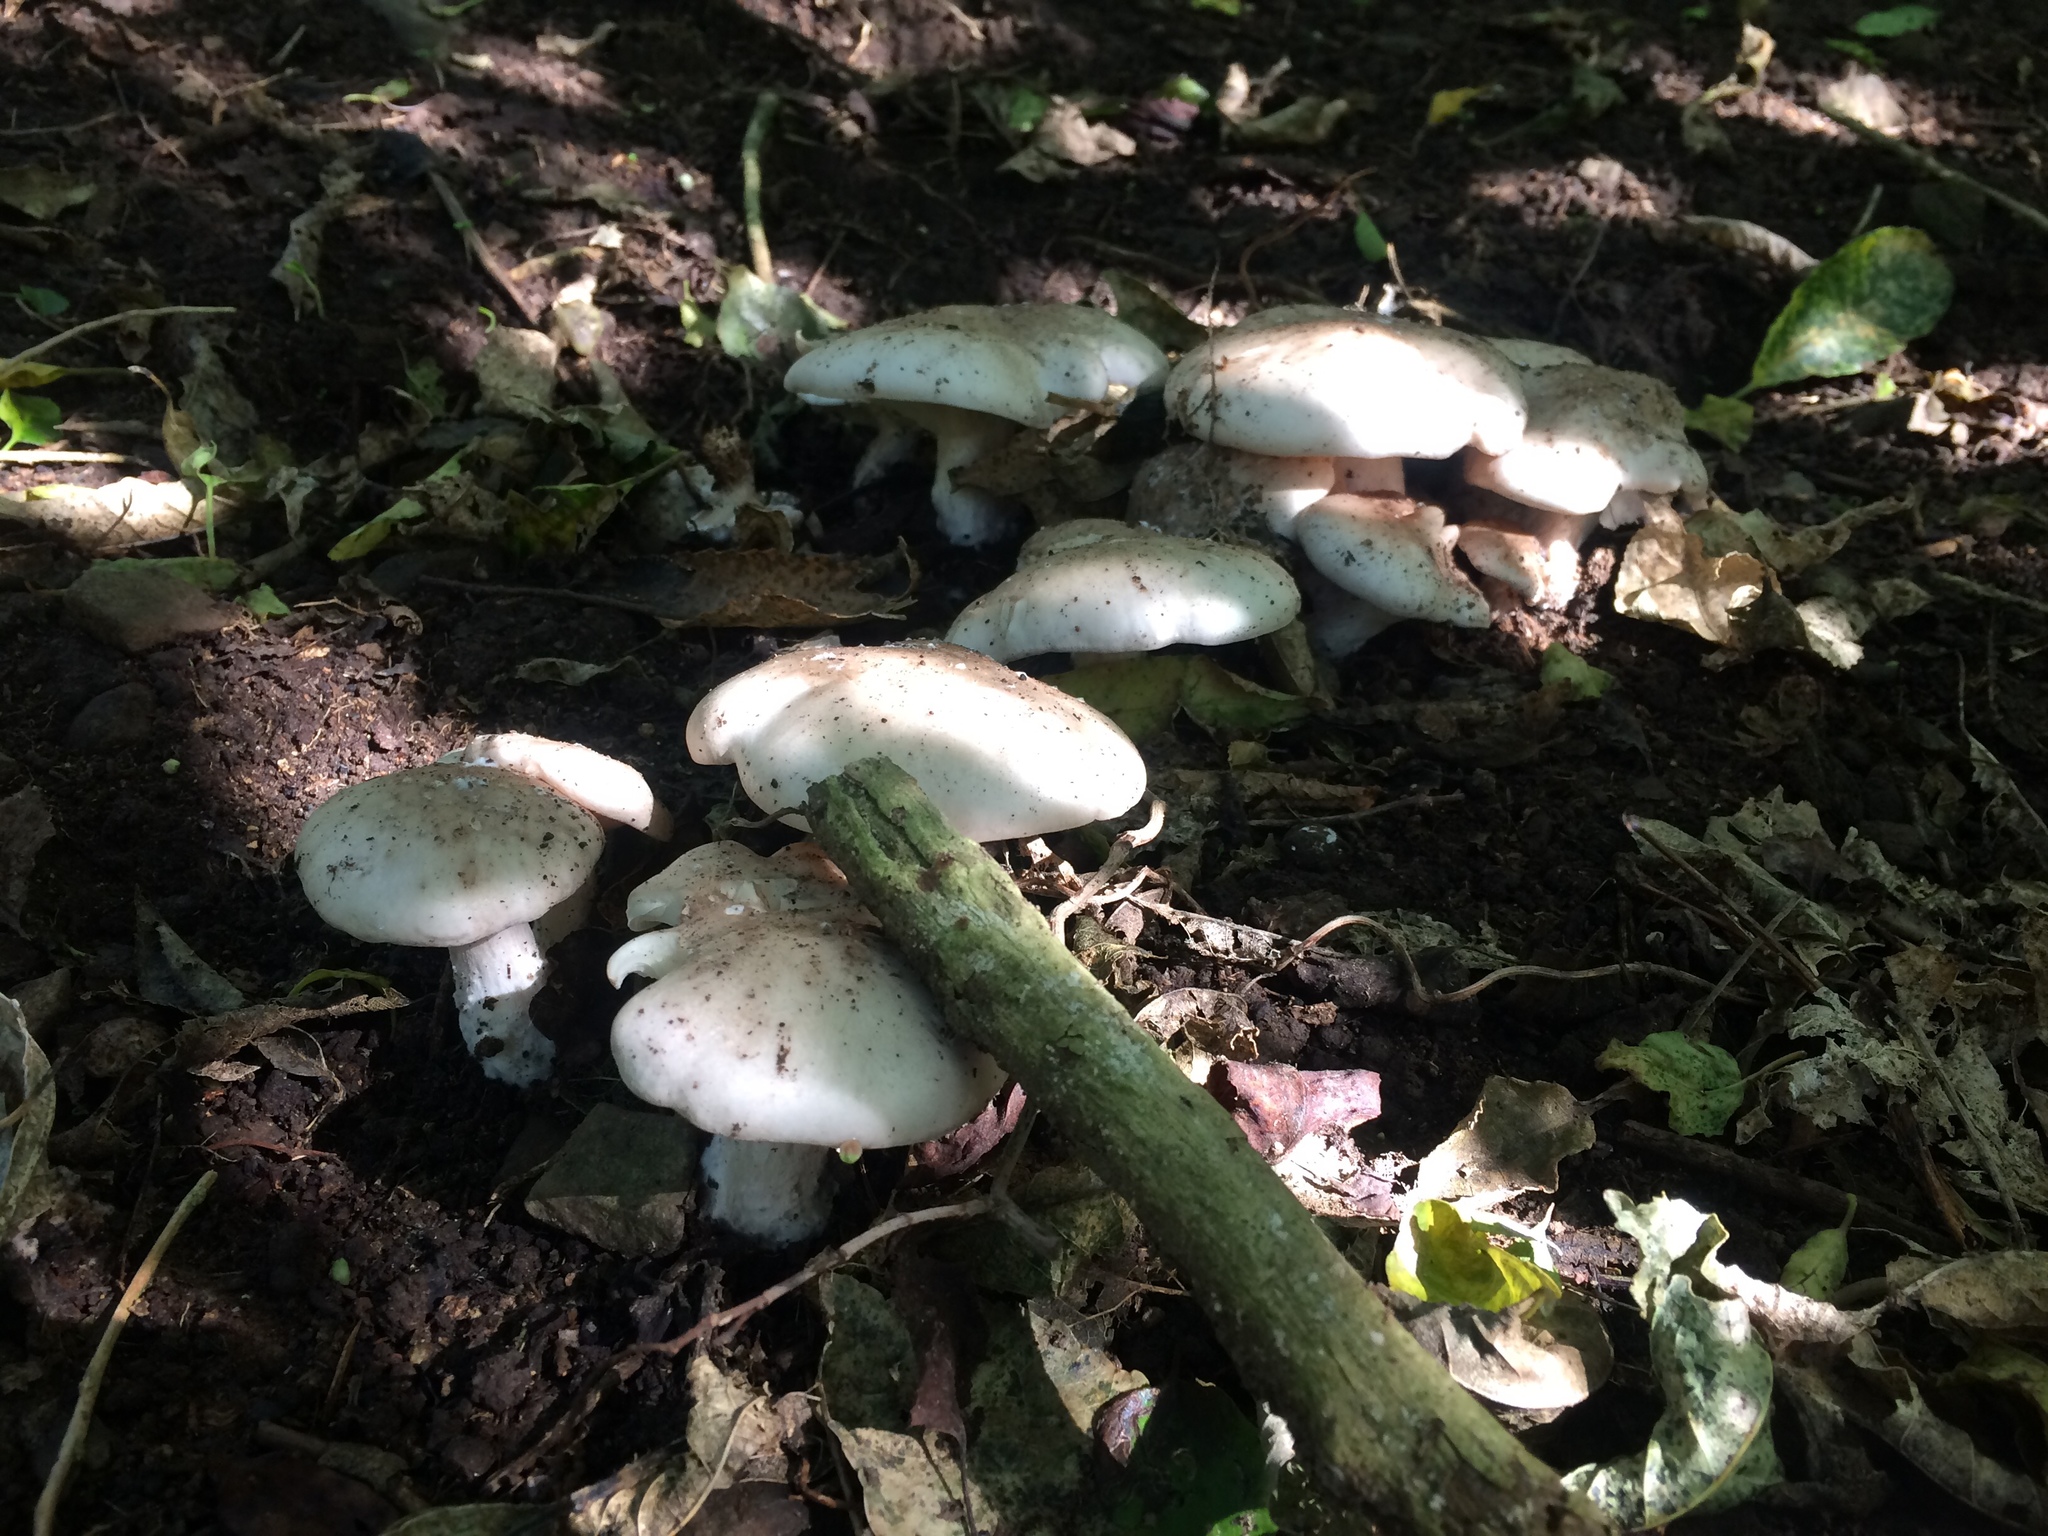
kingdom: Fungi
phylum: Basidiomycota
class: Agaricomycetes
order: Agaricales
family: Tricholomataceae
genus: Clitocybe
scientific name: Clitocybe nebularis
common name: Clouded agaric
